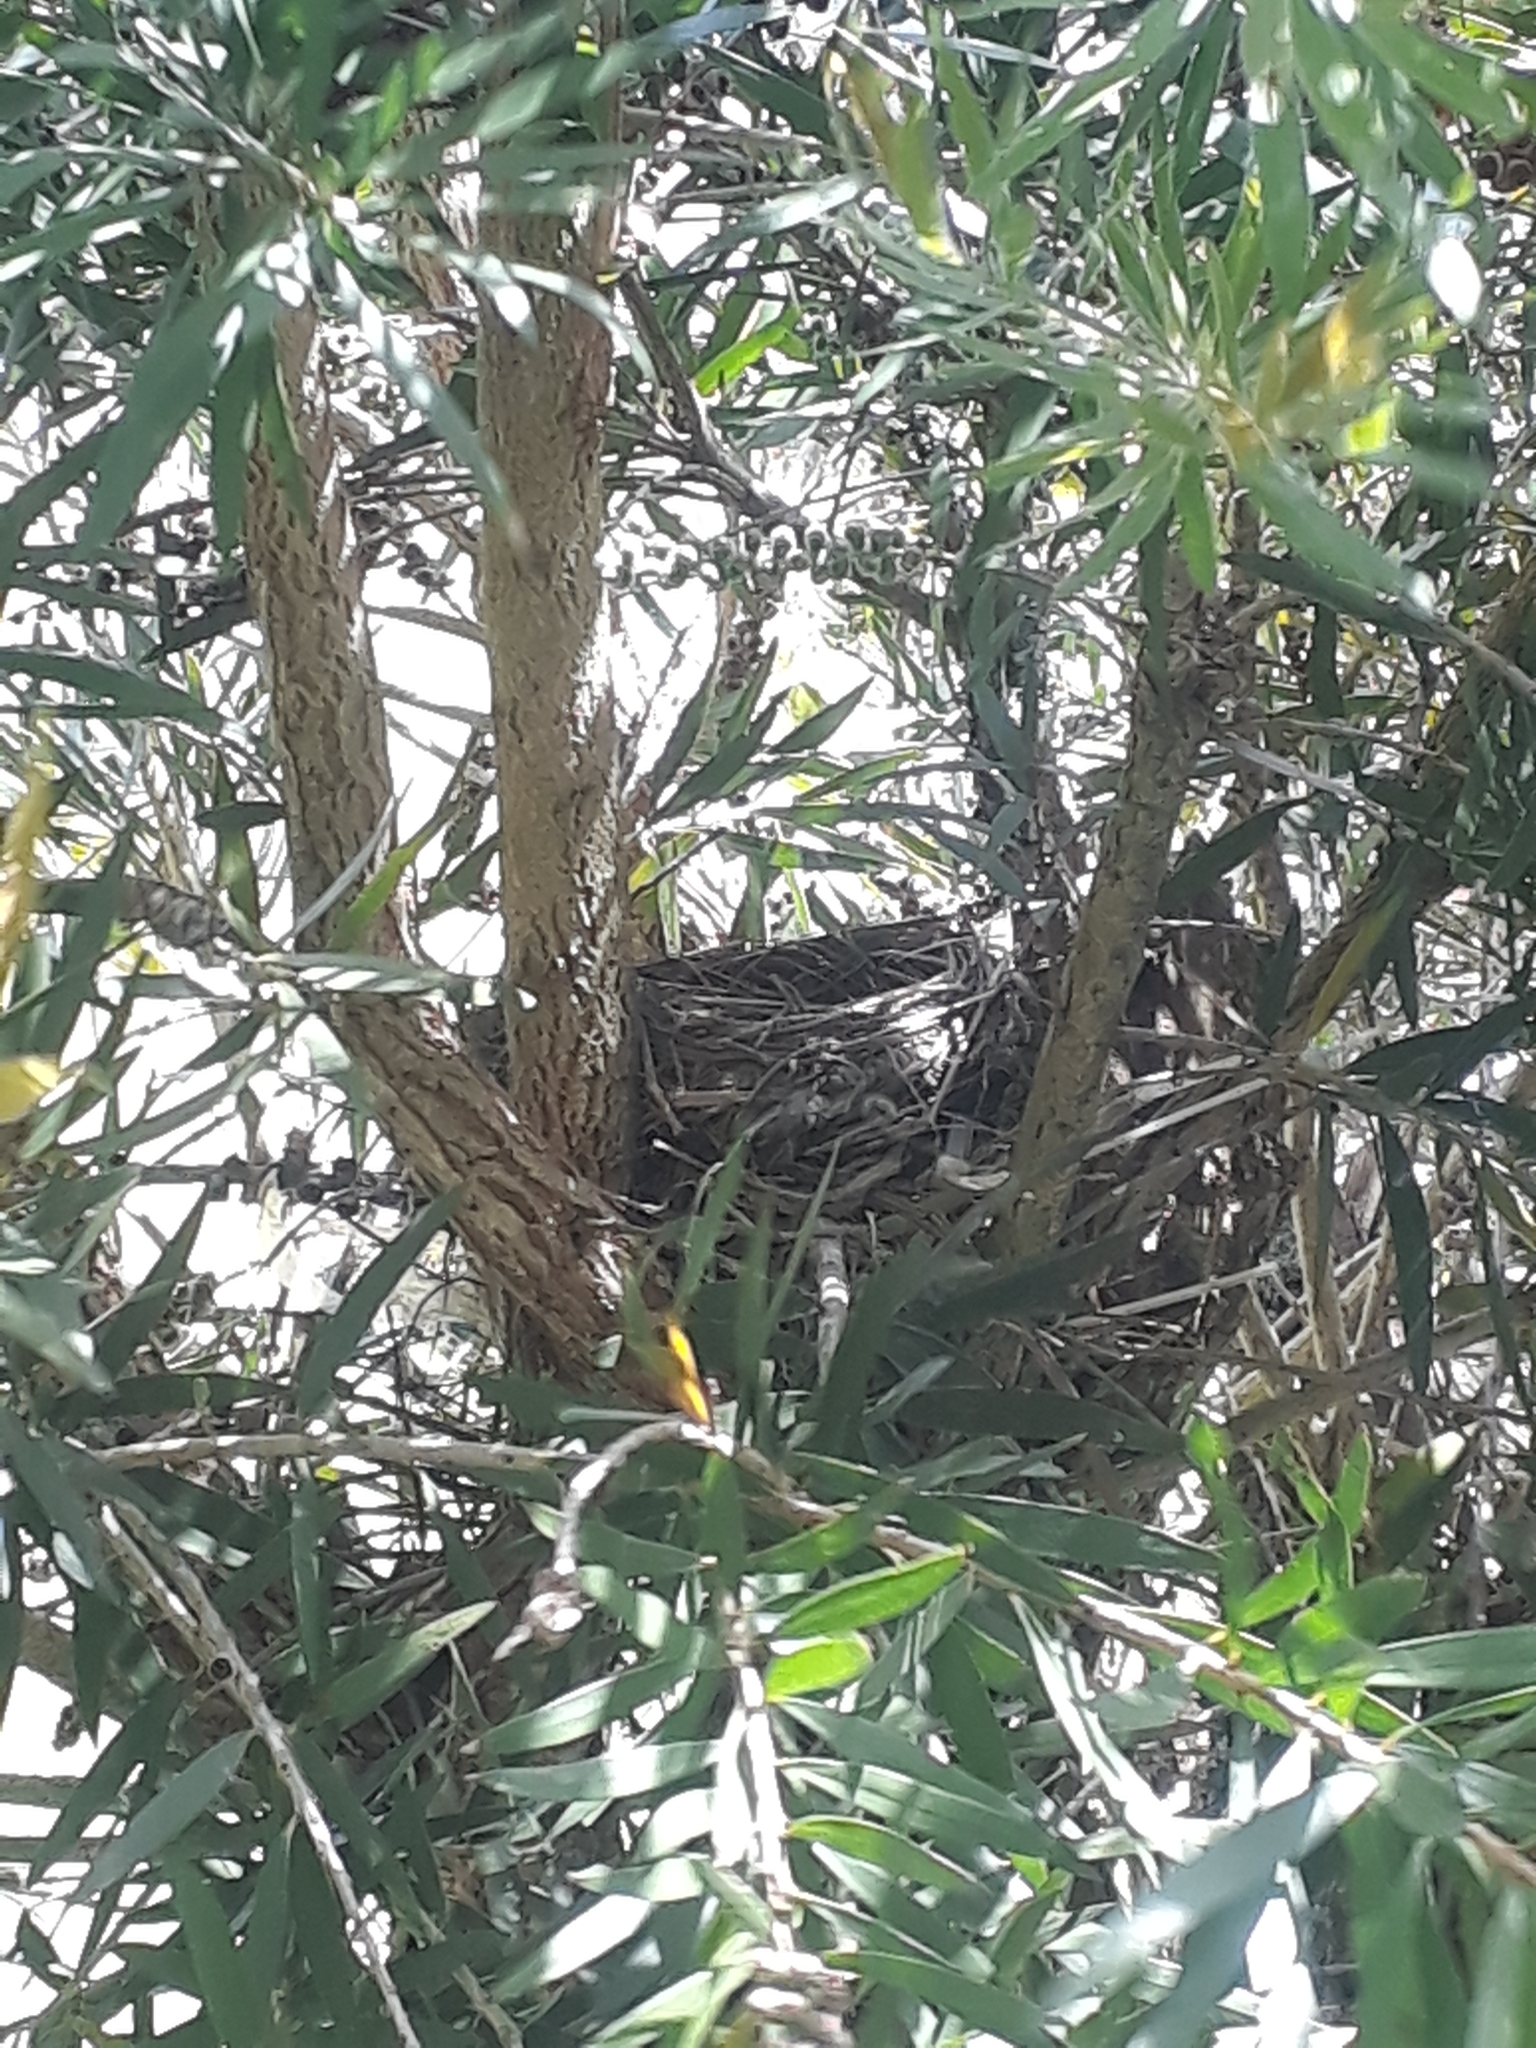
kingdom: Animalia
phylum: Chordata
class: Aves
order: Passeriformes
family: Turdidae
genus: Turdus
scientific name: Turdus philomelos
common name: Song thrush
